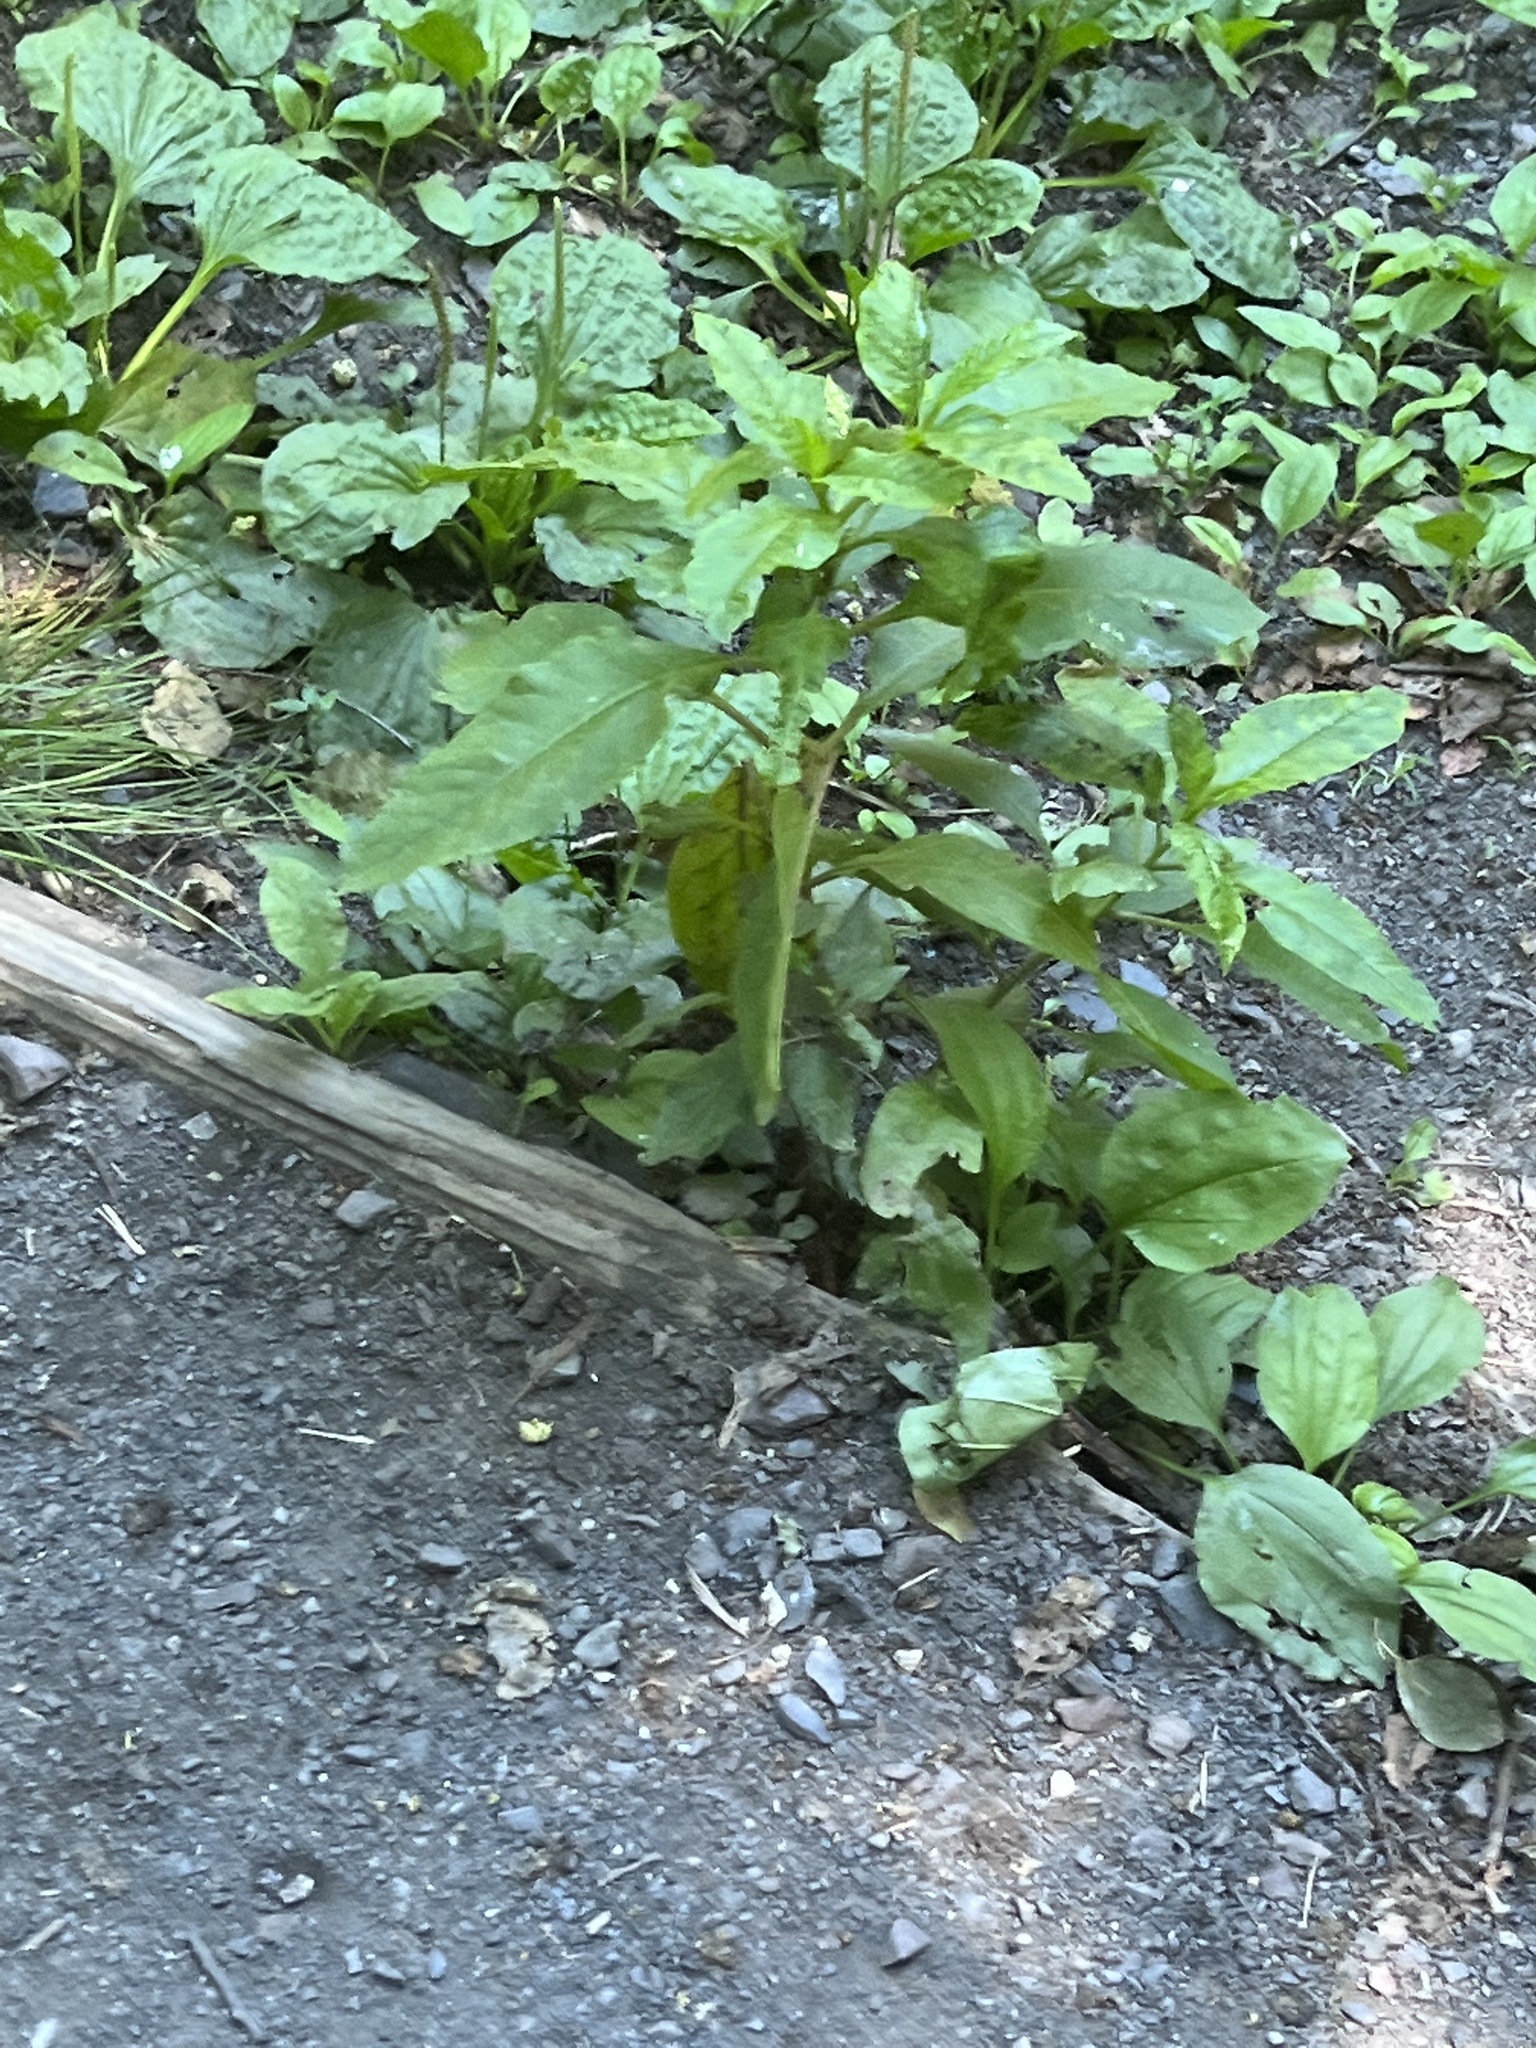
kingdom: Plantae
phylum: Tracheophyta
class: Magnoliopsida
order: Caryophyllales
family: Phytolaccaceae
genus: Phytolacca
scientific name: Phytolacca americana
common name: American pokeweed
